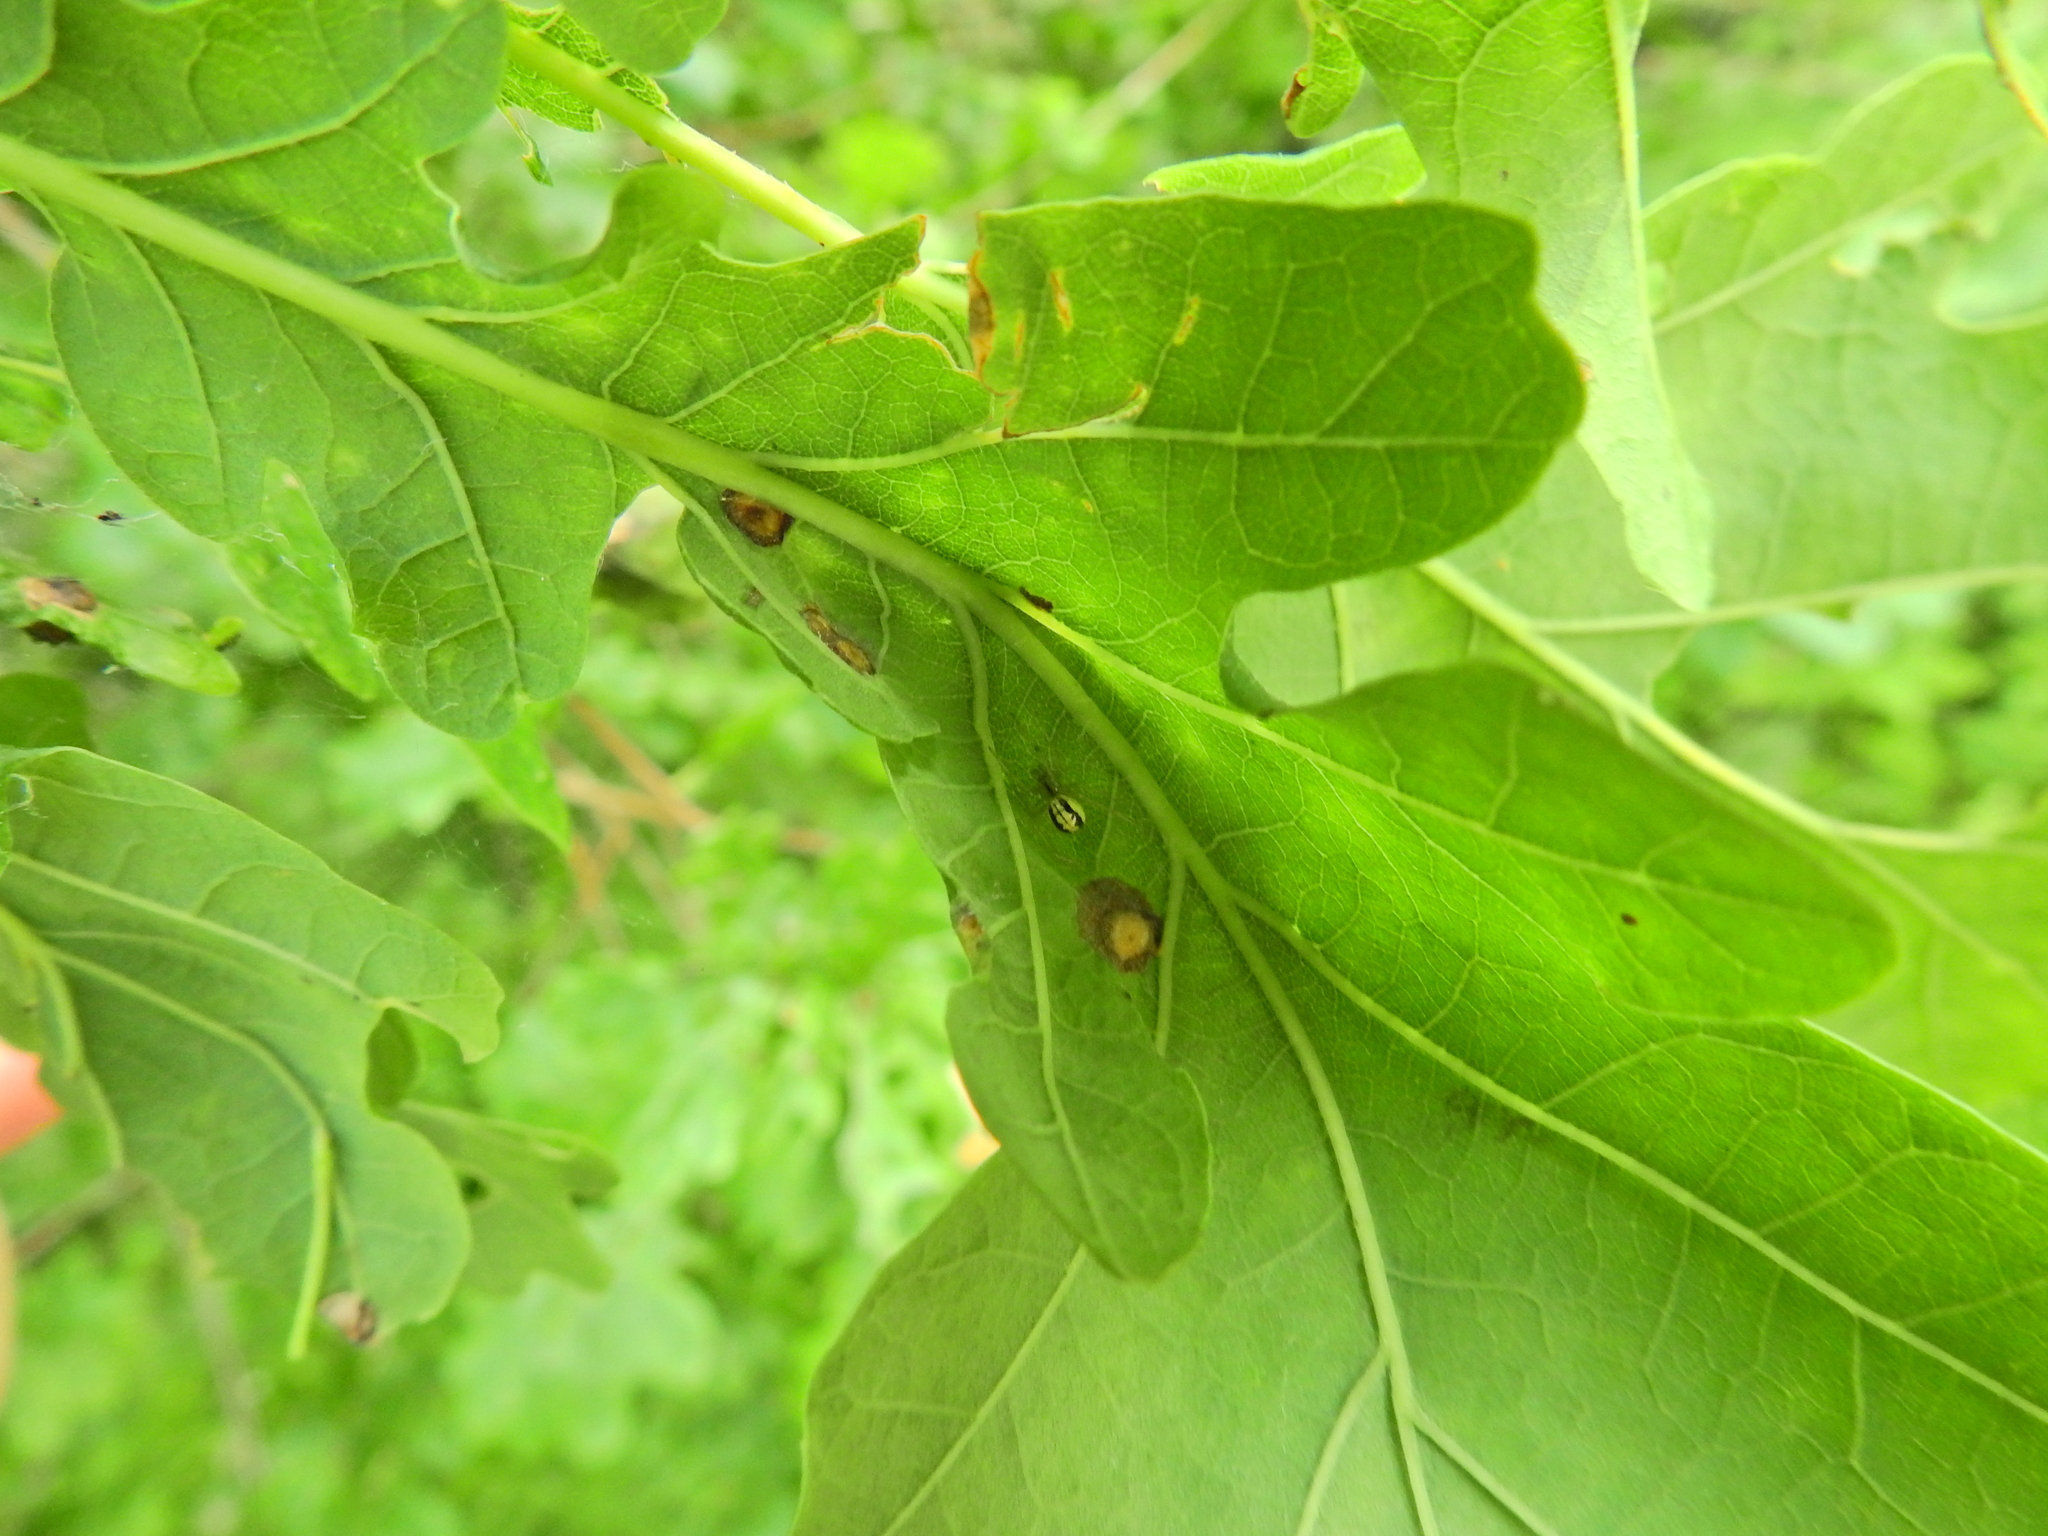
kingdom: Animalia
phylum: Arthropoda
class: Arachnida
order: Araneae
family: Theridiidae
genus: Enoplognatha
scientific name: Enoplognatha
